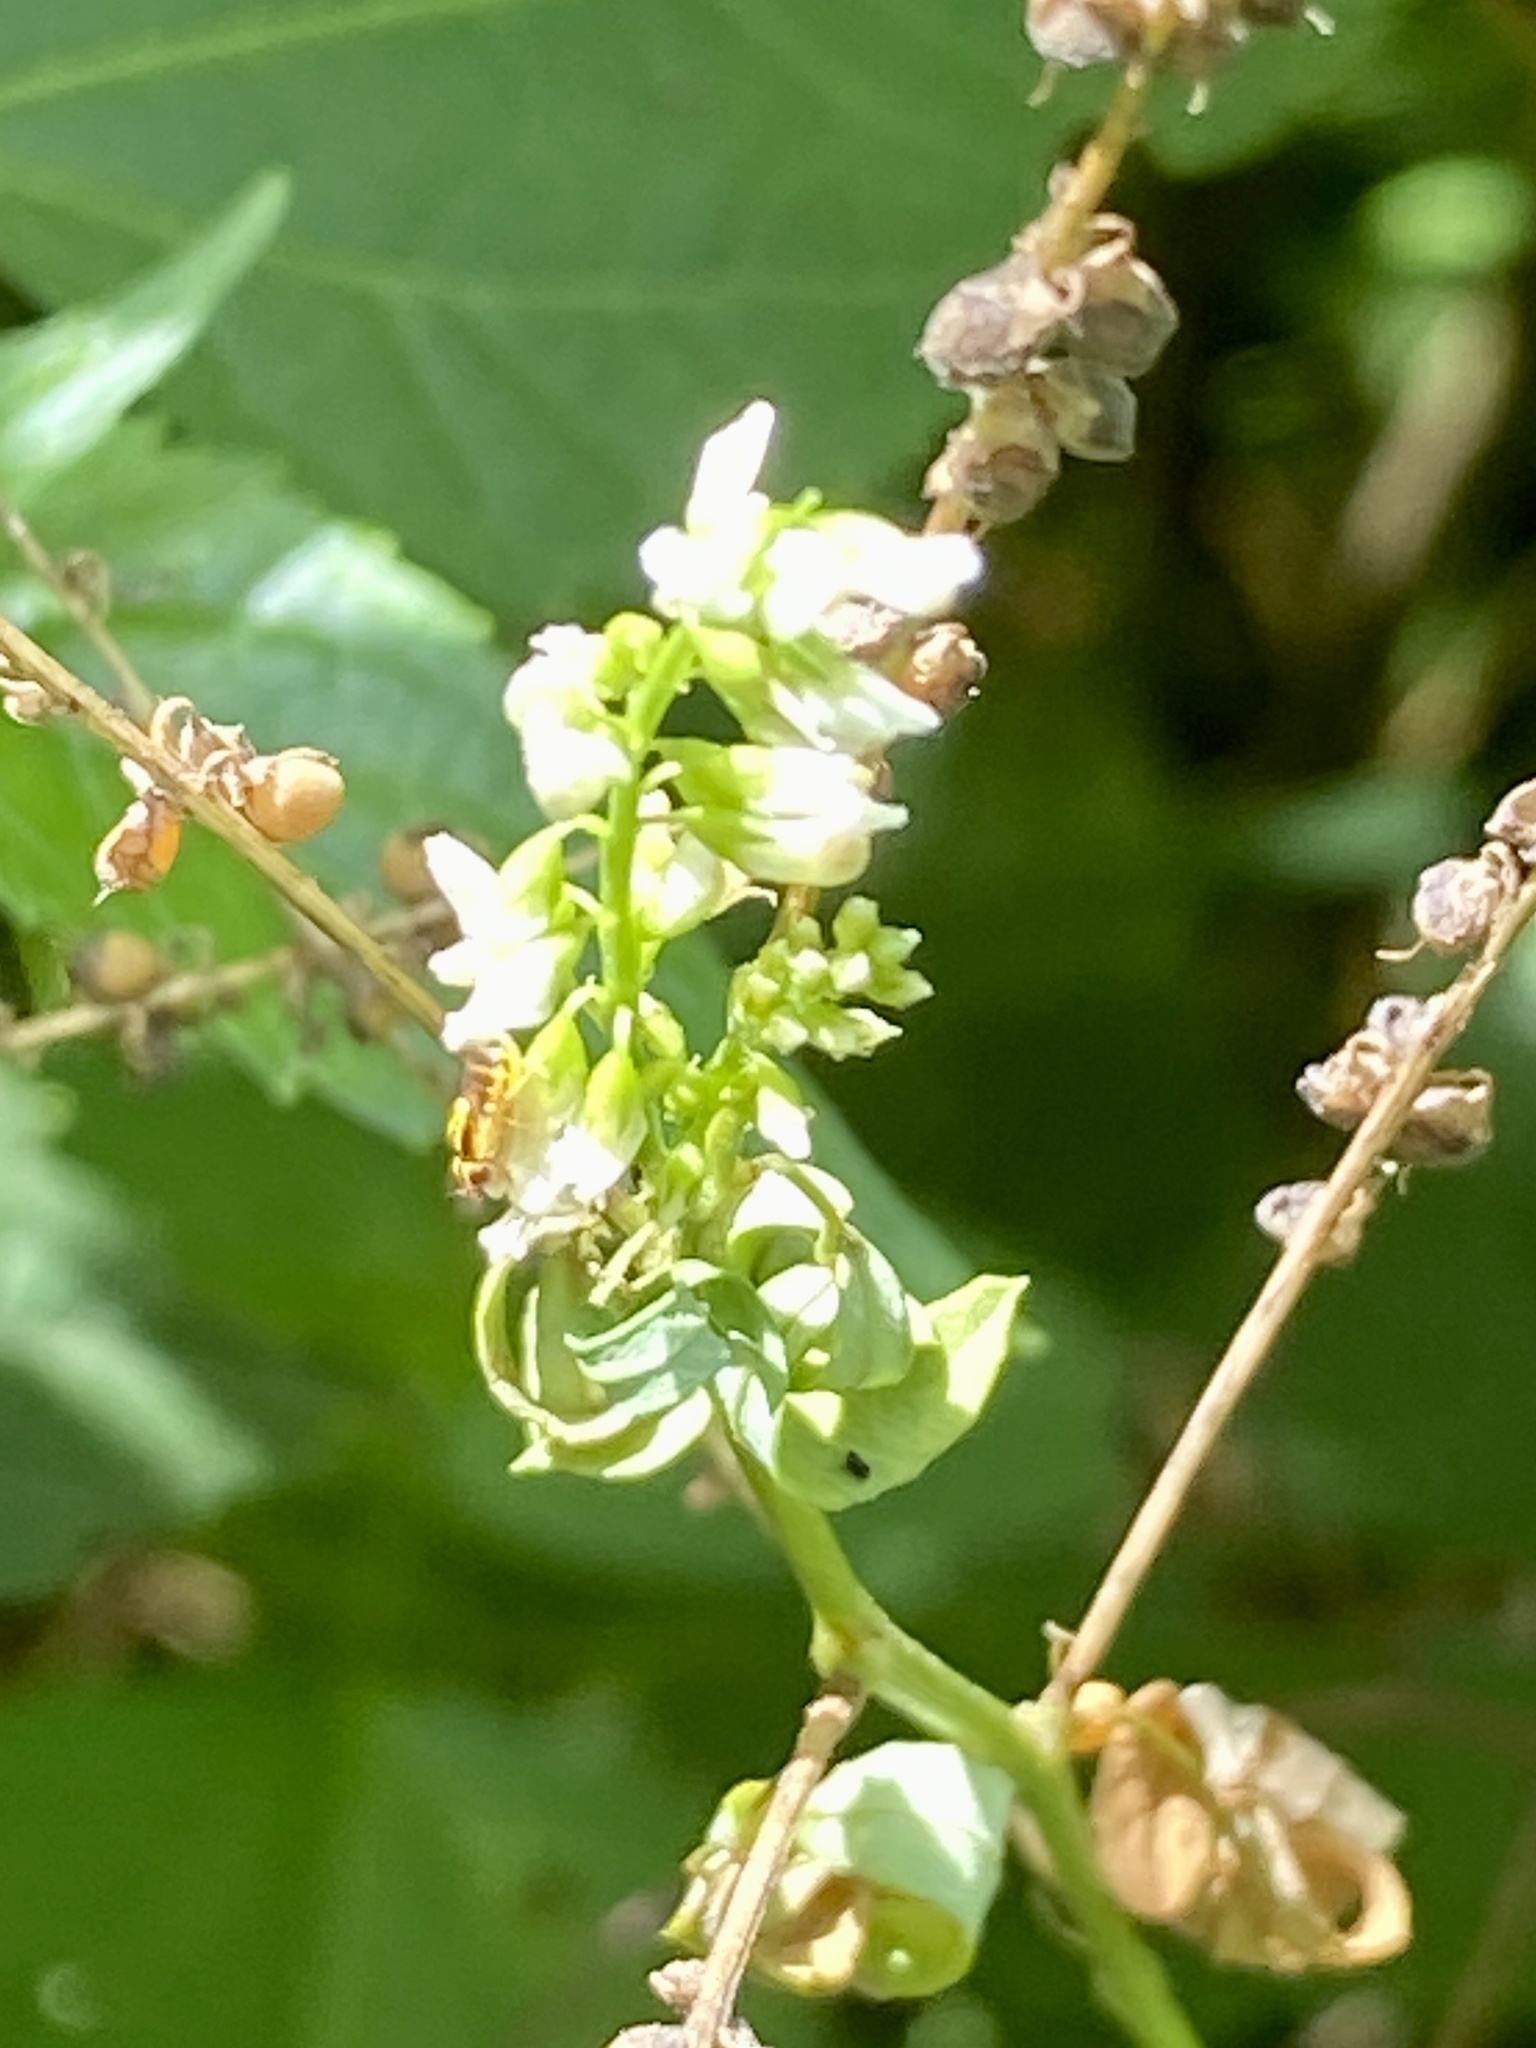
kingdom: Plantae
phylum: Tracheophyta
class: Magnoliopsida
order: Fabales
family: Fabaceae
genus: Melilotus
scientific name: Melilotus albus
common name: White melilot
